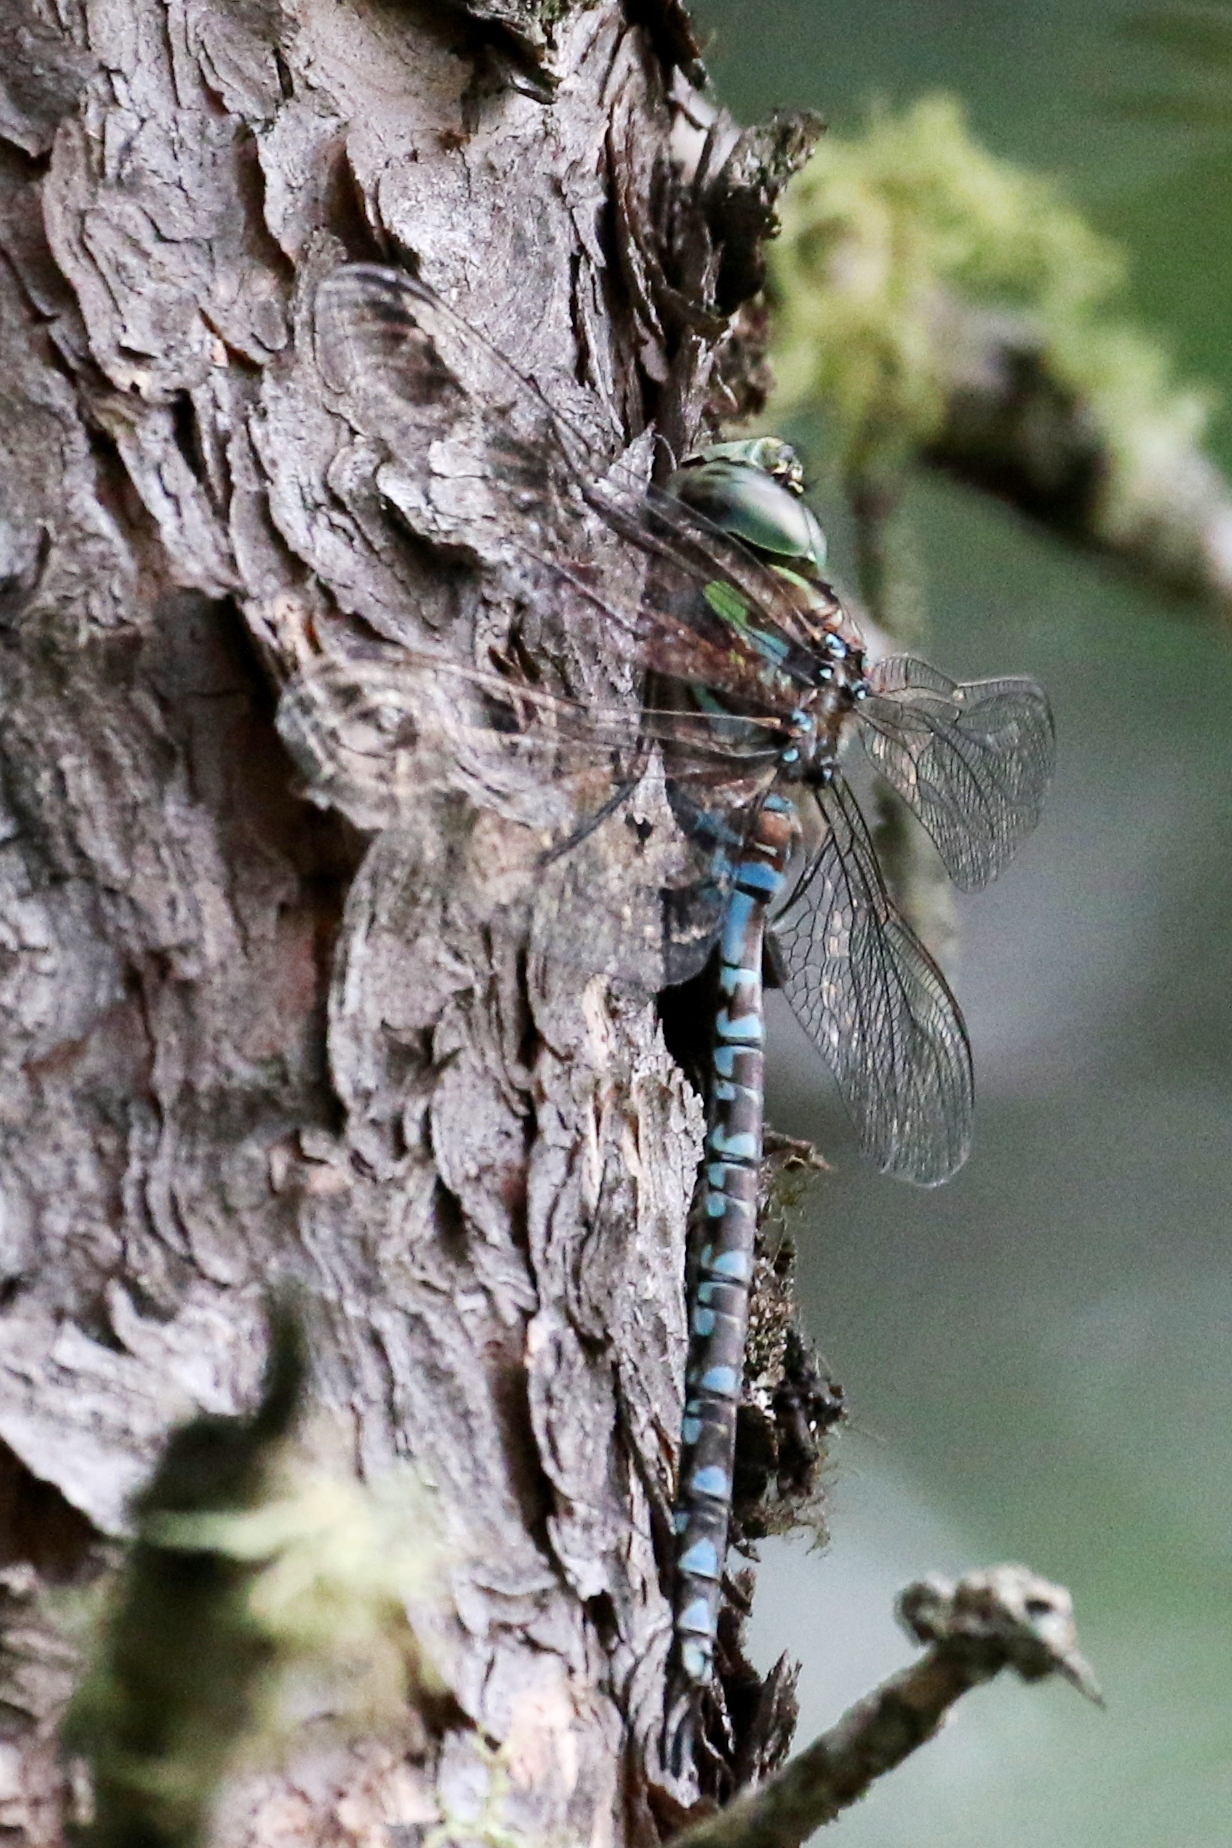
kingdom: Animalia
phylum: Arthropoda
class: Insecta
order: Odonata
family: Aeshnidae
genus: Aeshna
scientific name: Aeshna canadensis
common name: Canada darner
